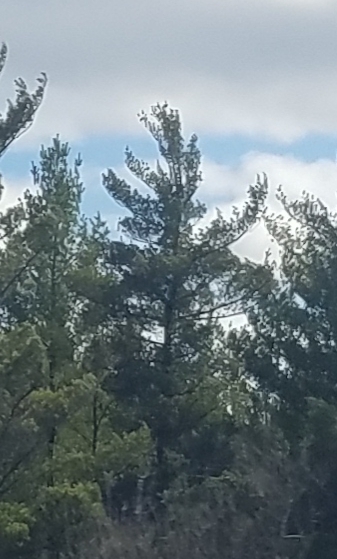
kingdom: Plantae
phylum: Tracheophyta
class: Pinopsida
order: Pinales
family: Pinaceae
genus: Pinus
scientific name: Pinus strobus
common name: Weymouth pine
